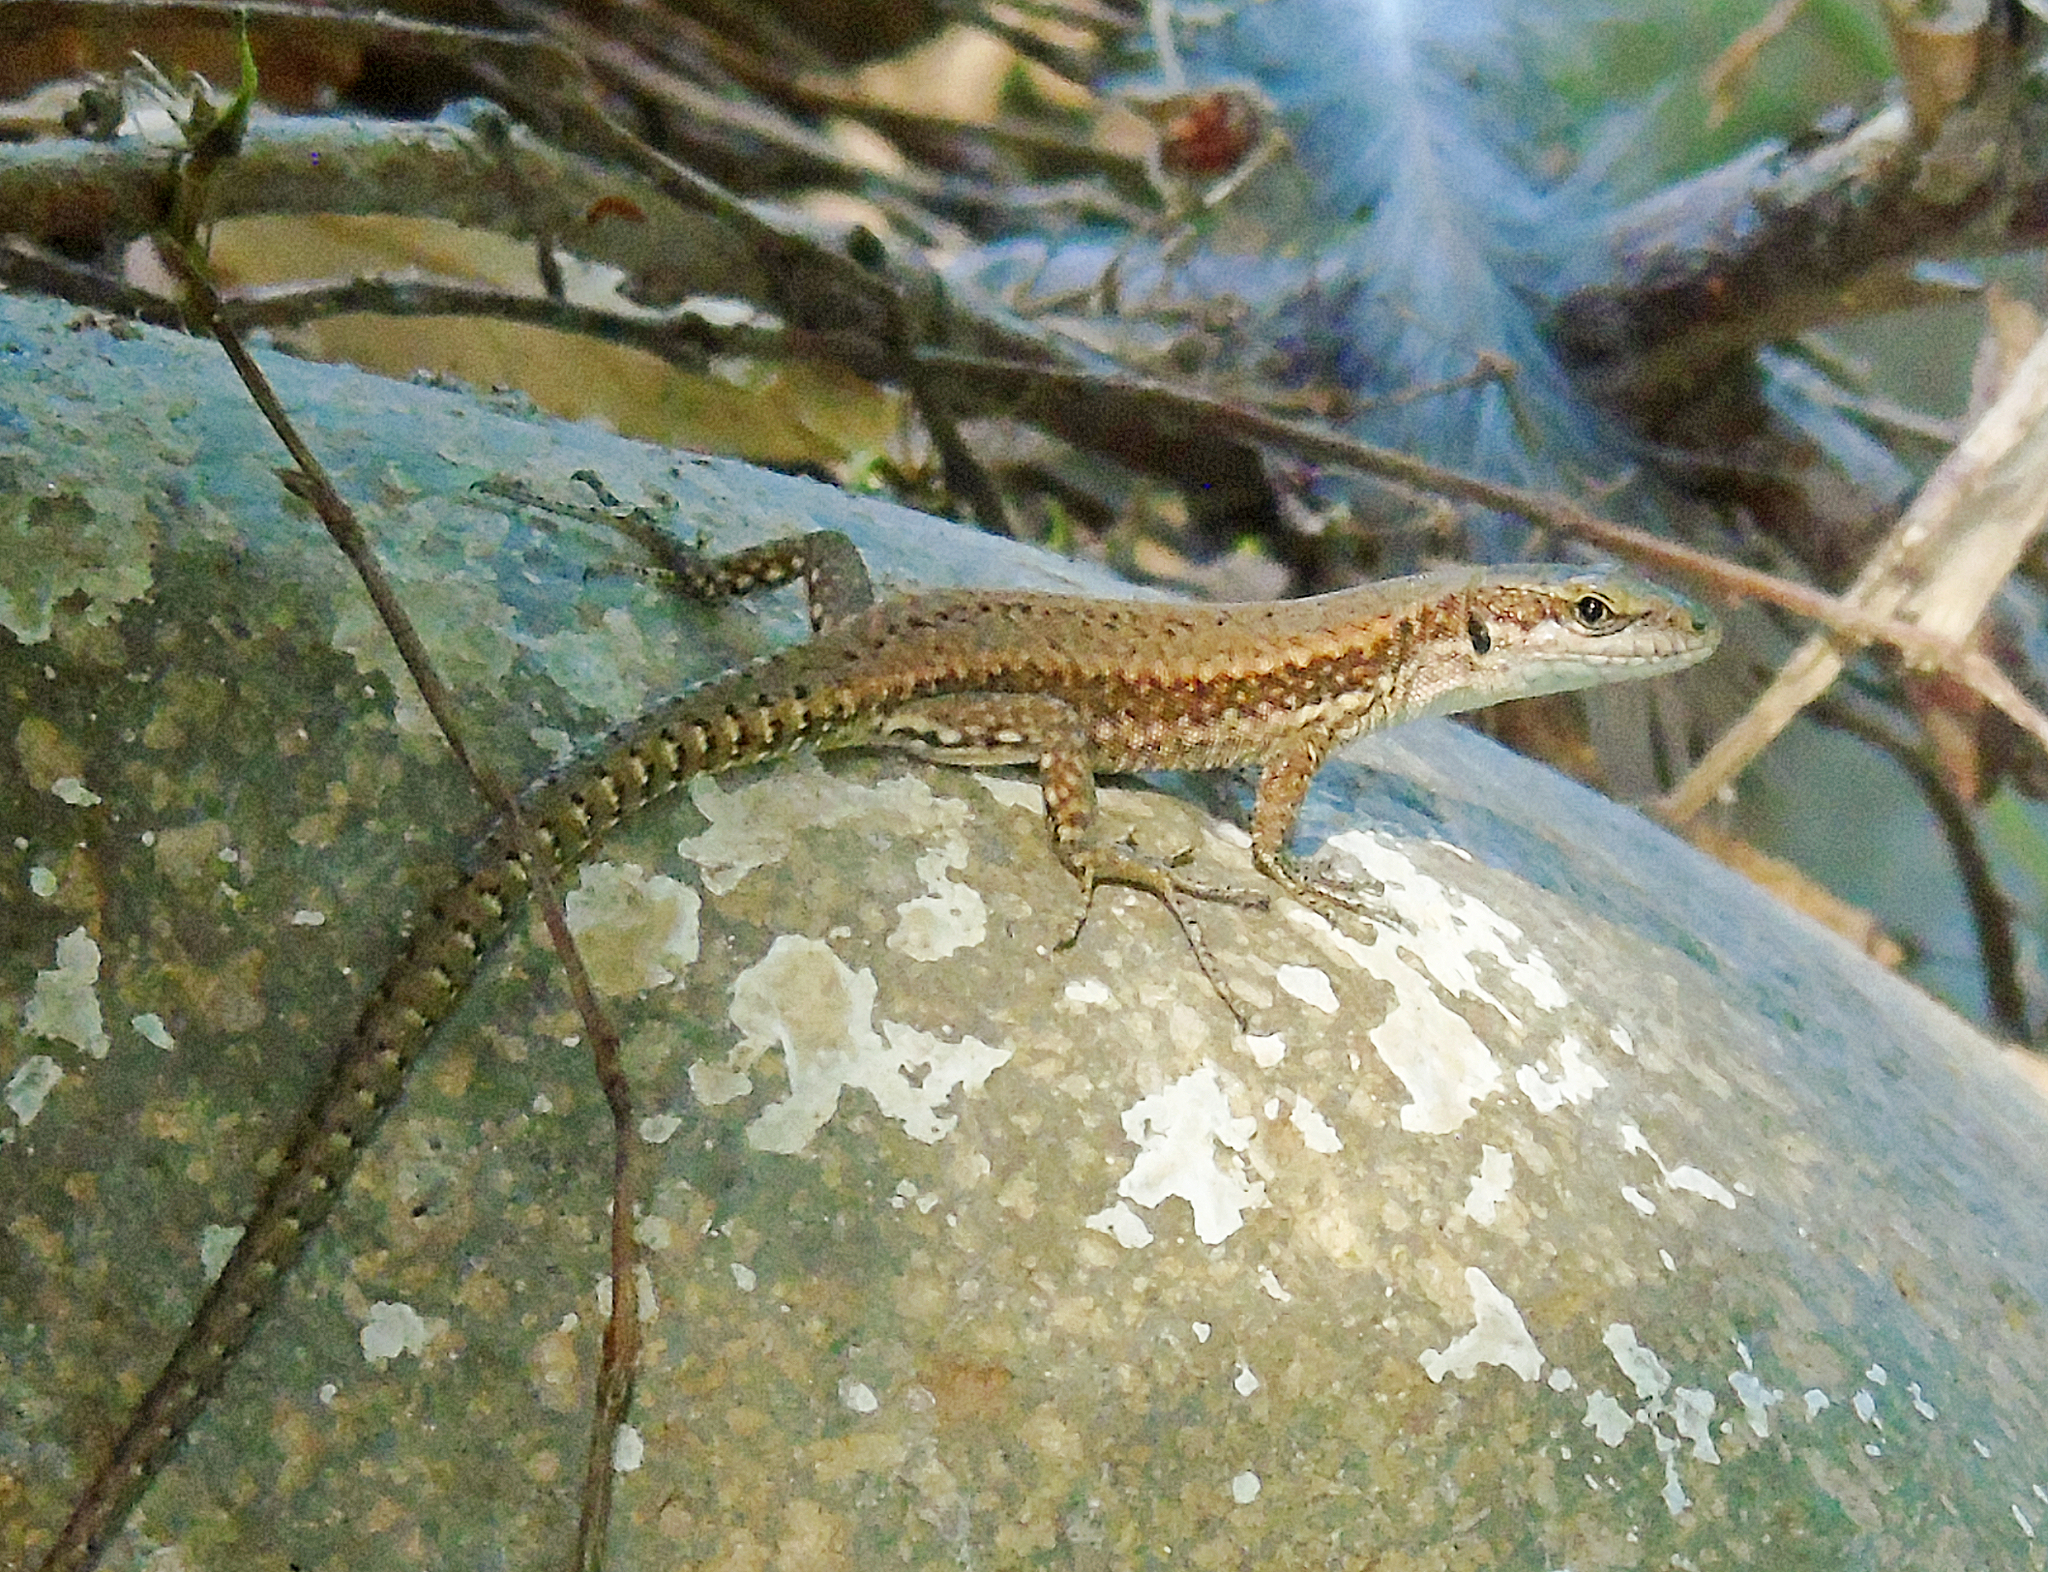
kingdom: Animalia
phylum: Chordata
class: Squamata
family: Lacertidae
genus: Podarcis
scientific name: Podarcis muralis
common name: Common wall lizard
